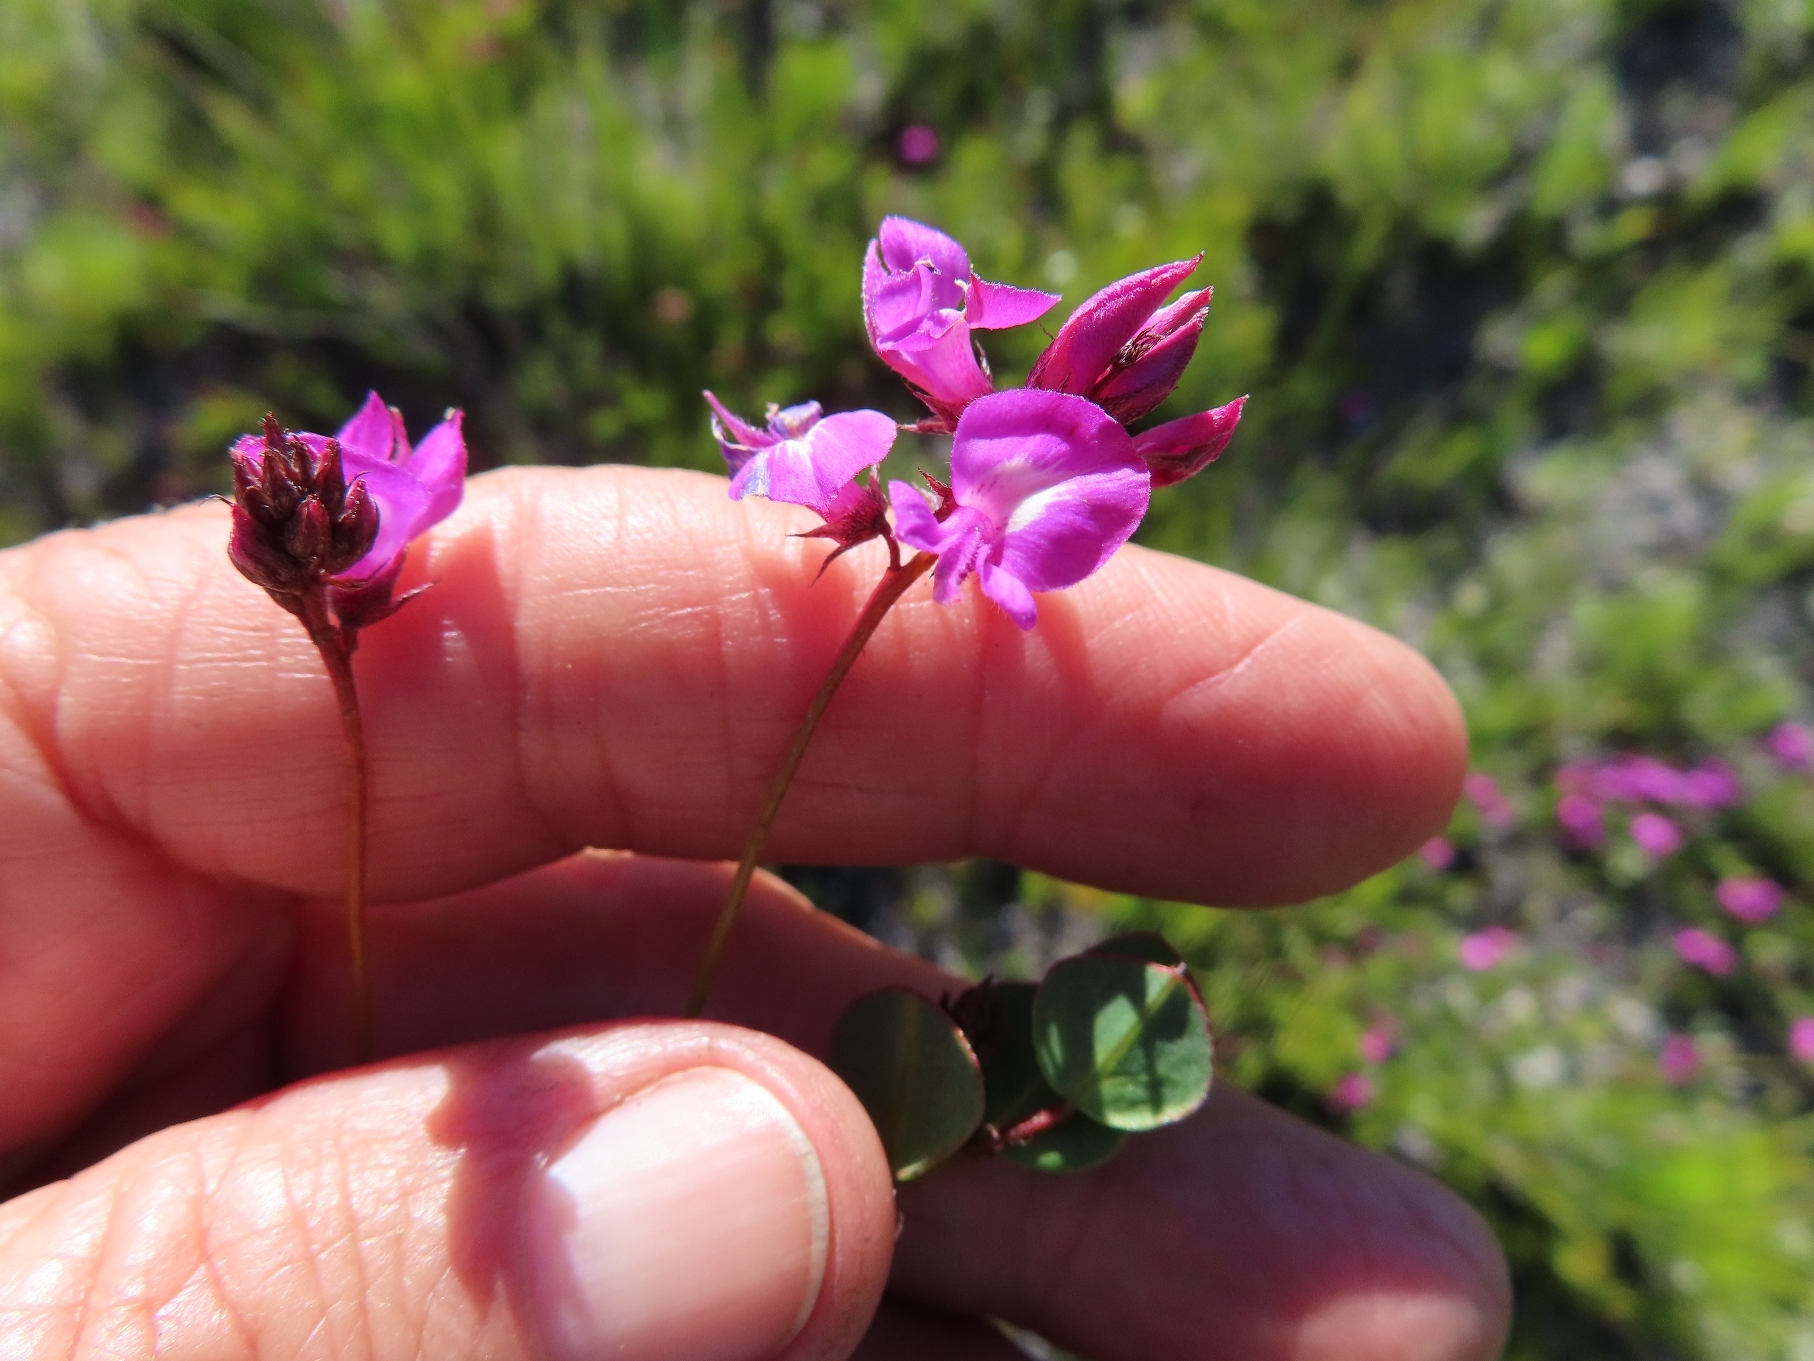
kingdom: Plantae
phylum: Tracheophyta
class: Magnoliopsida
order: Fabales
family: Fabaceae
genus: Indigofera
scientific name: Indigofera ovata
